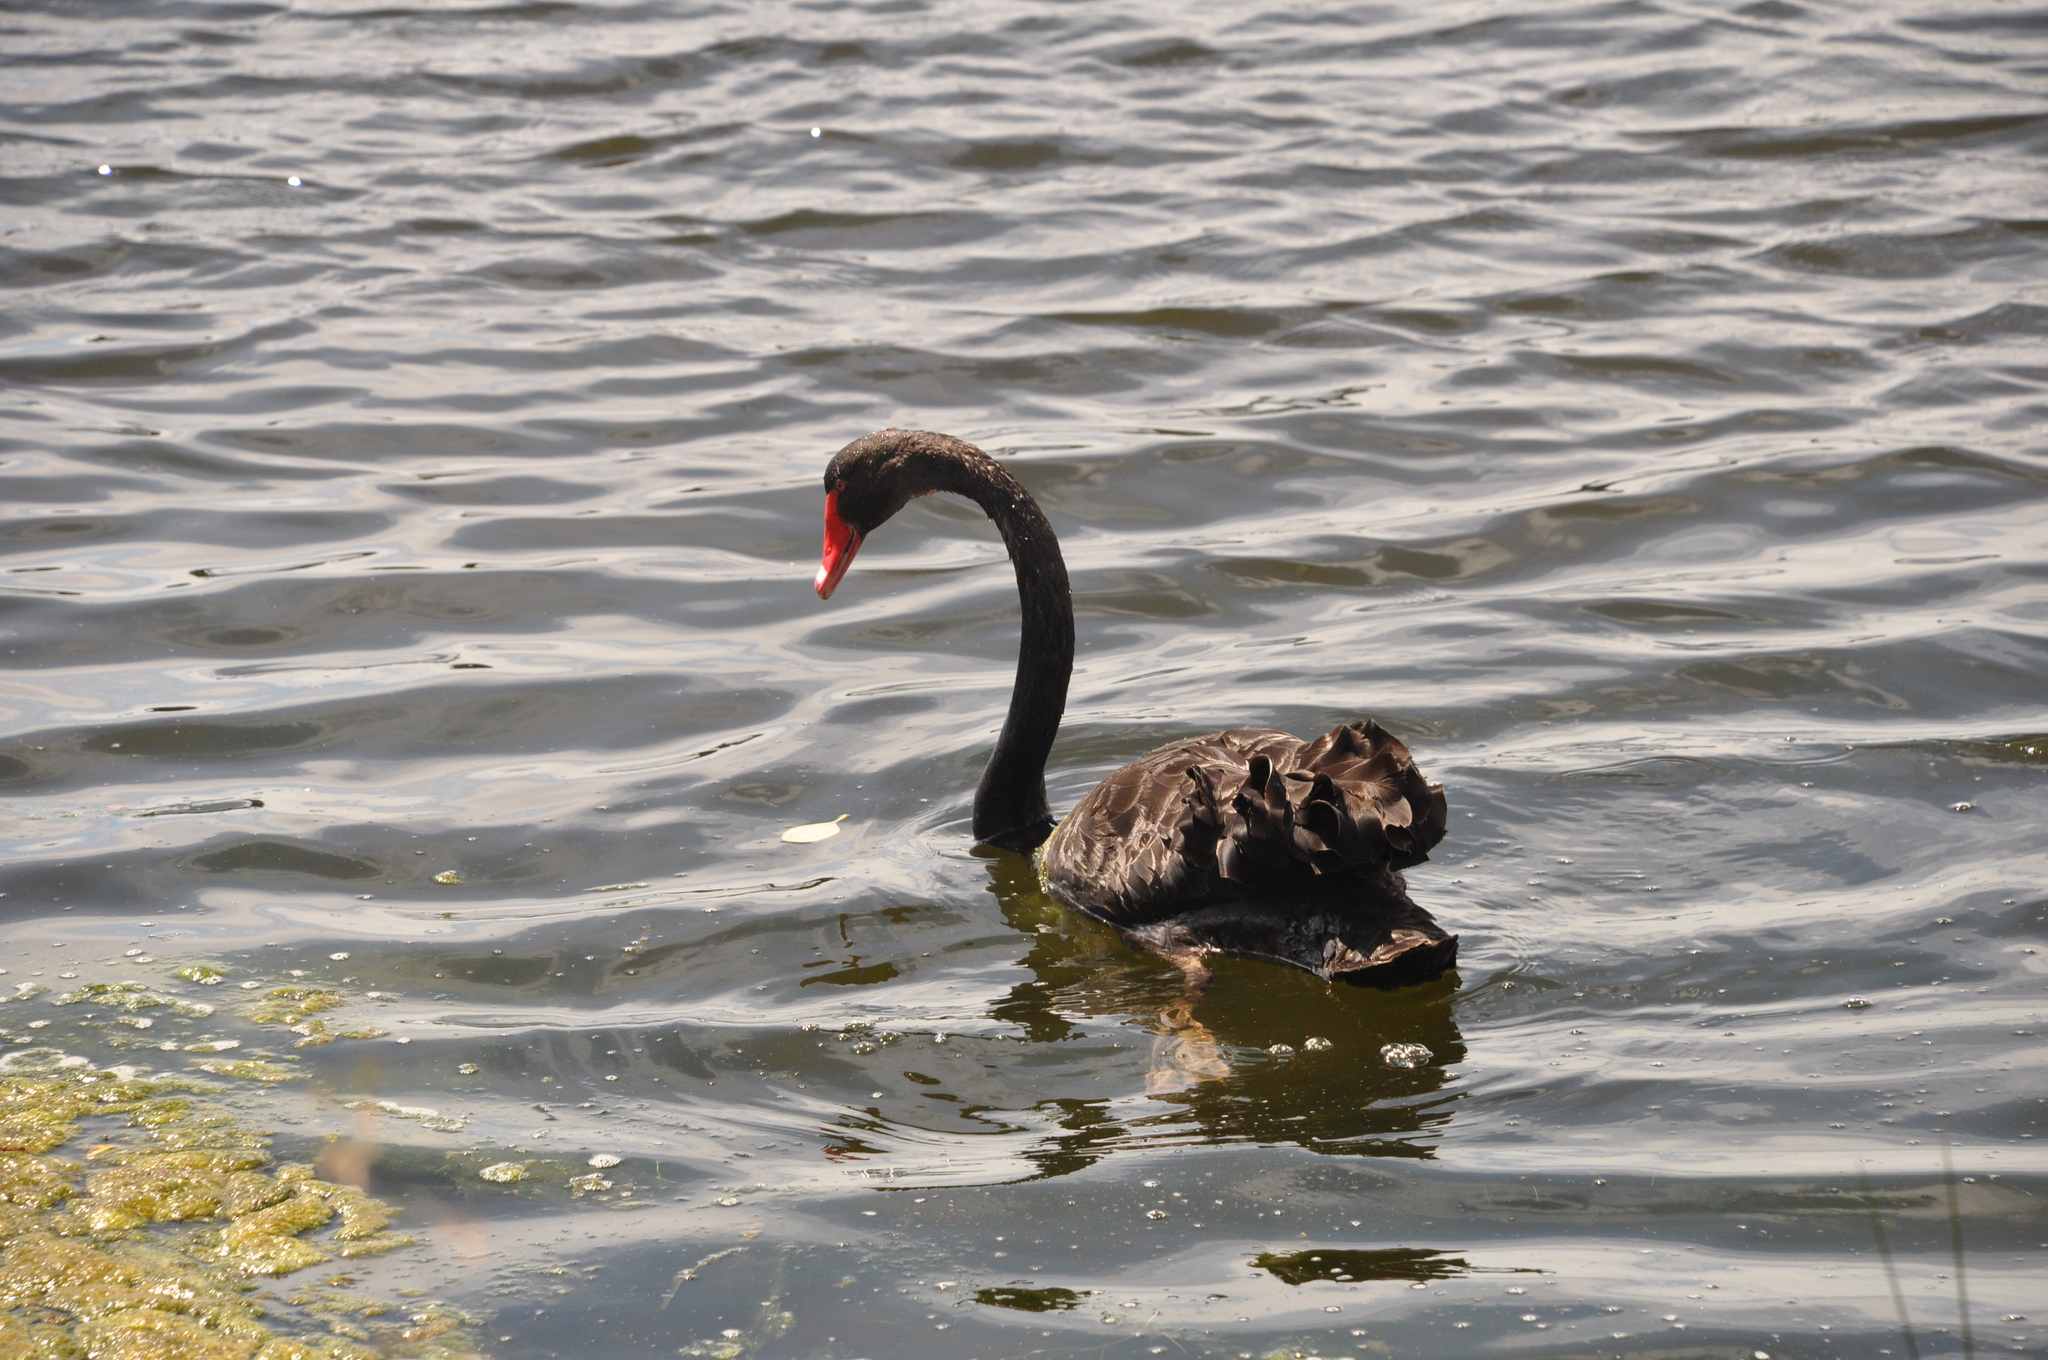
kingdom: Animalia
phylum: Chordata
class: Aves
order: Anseriformes
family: Anatidae
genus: Cygnus
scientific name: Cygnus atratus
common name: Black swan
